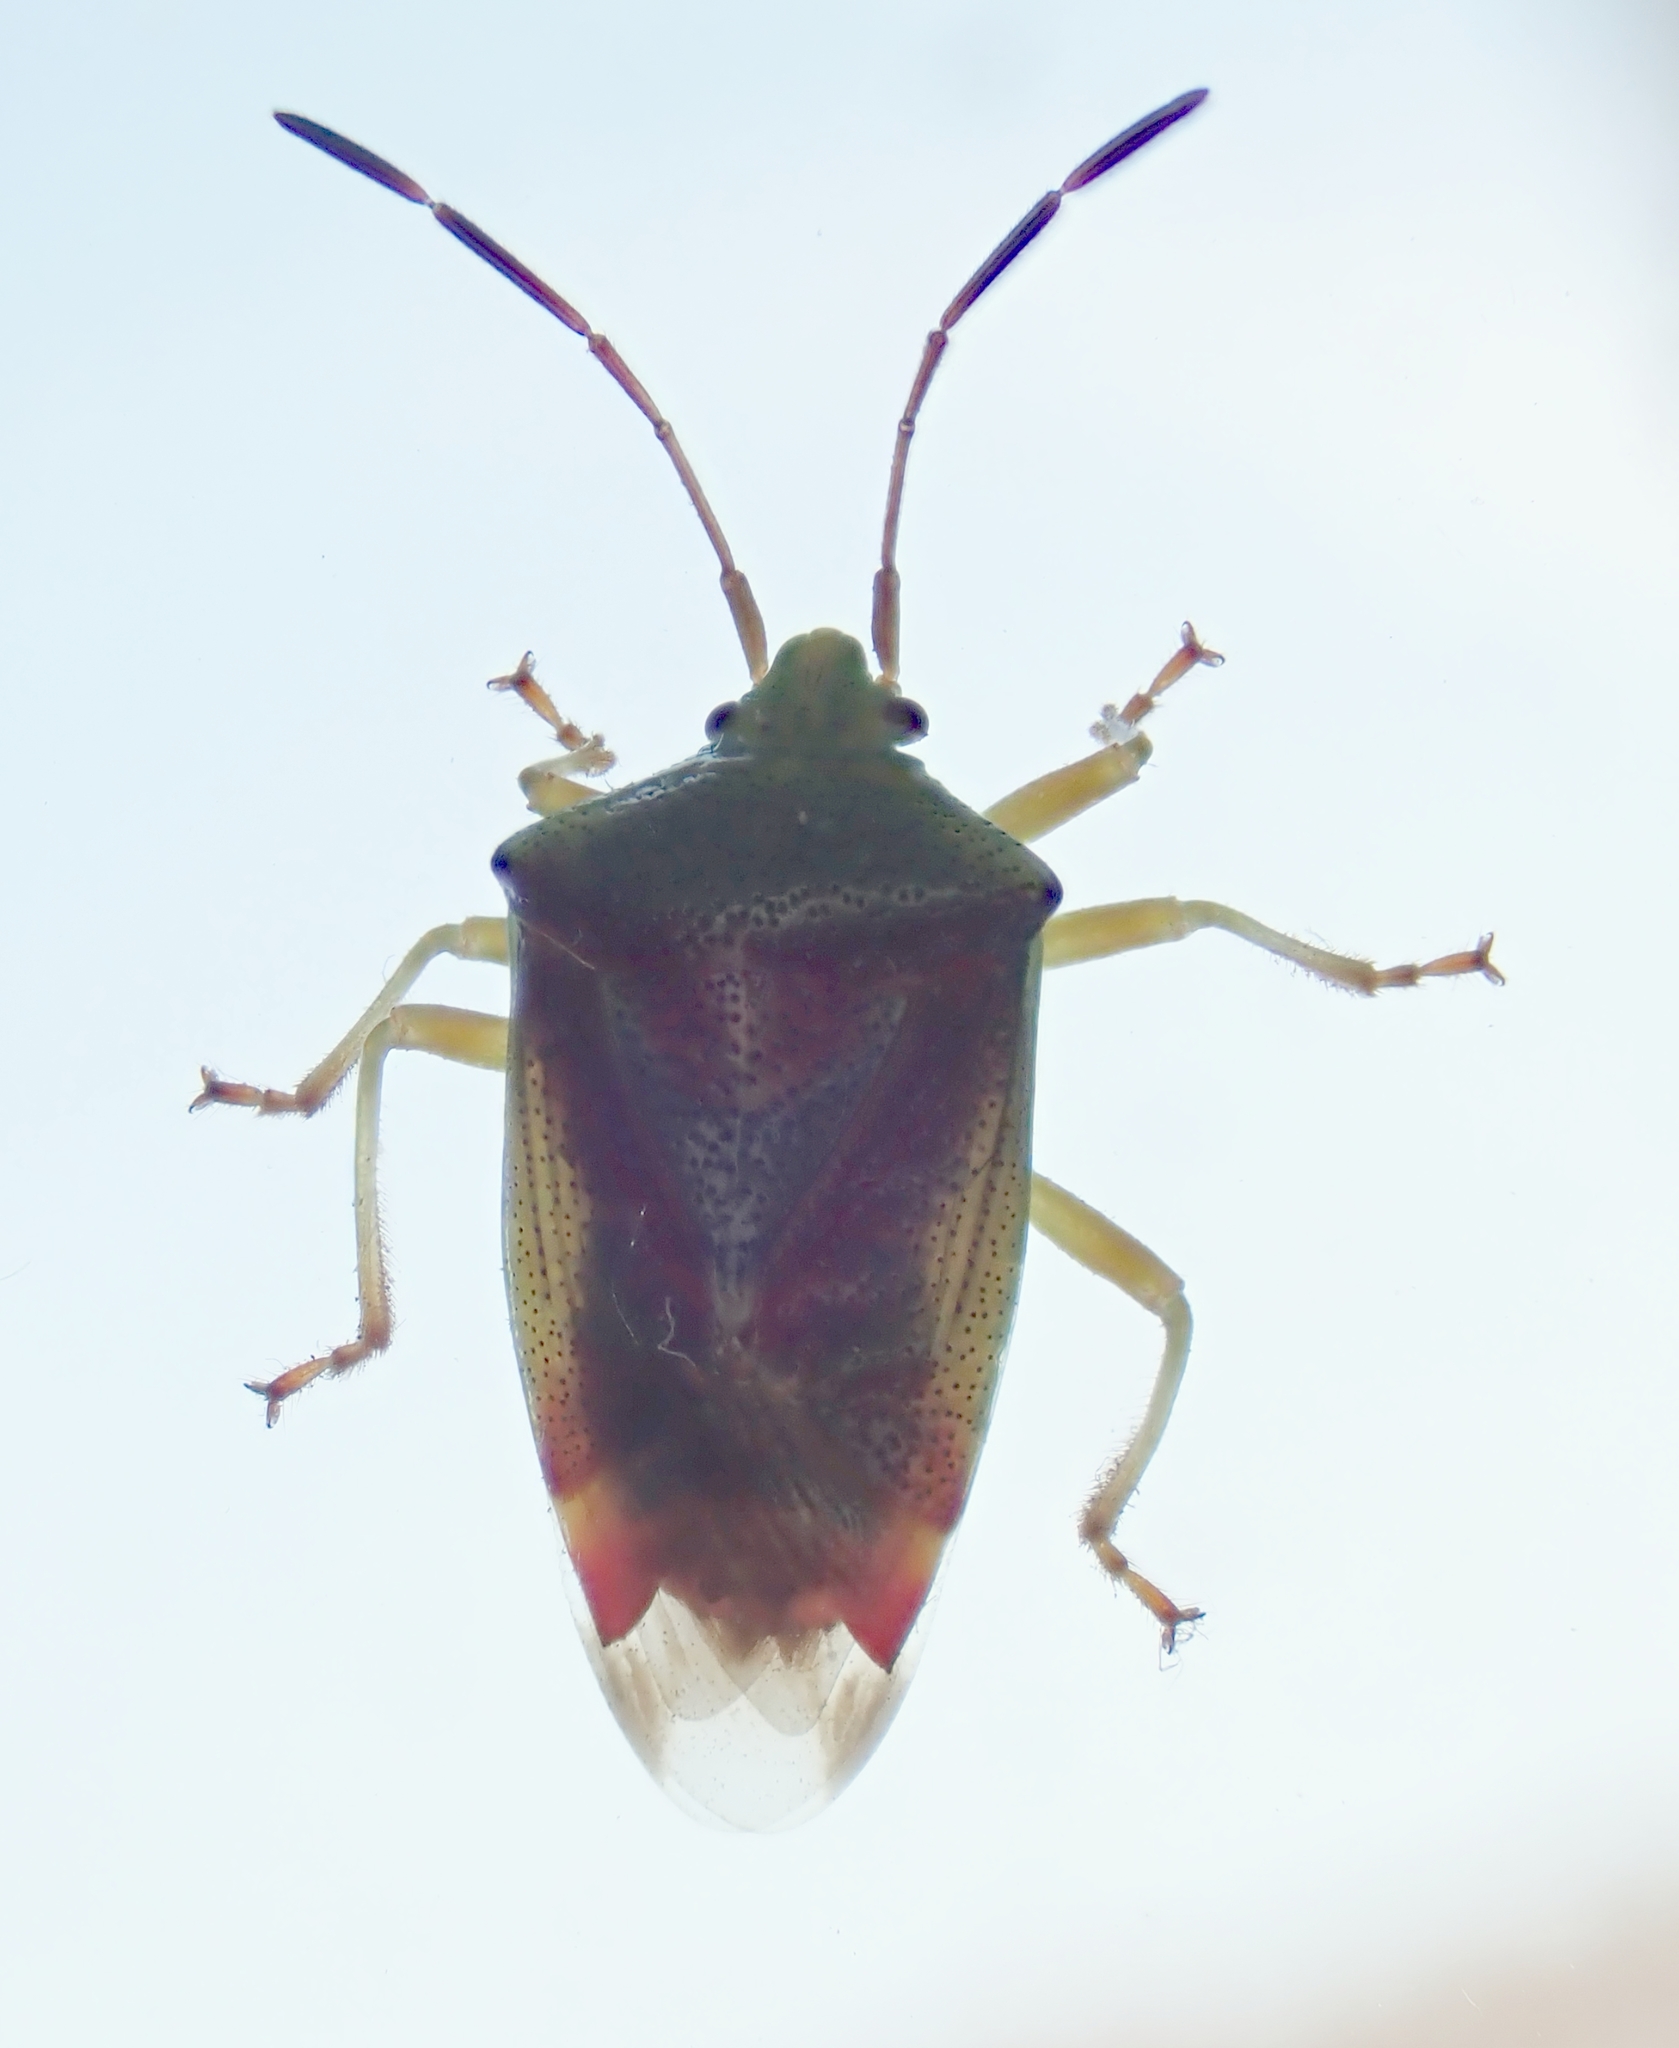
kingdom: Animalia
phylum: Arthropoda
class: Insecta
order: Hemiptera
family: Acanthosomatidae
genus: Elasmostethus
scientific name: Elasmostethus interstinctus
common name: Birch shieldbug
